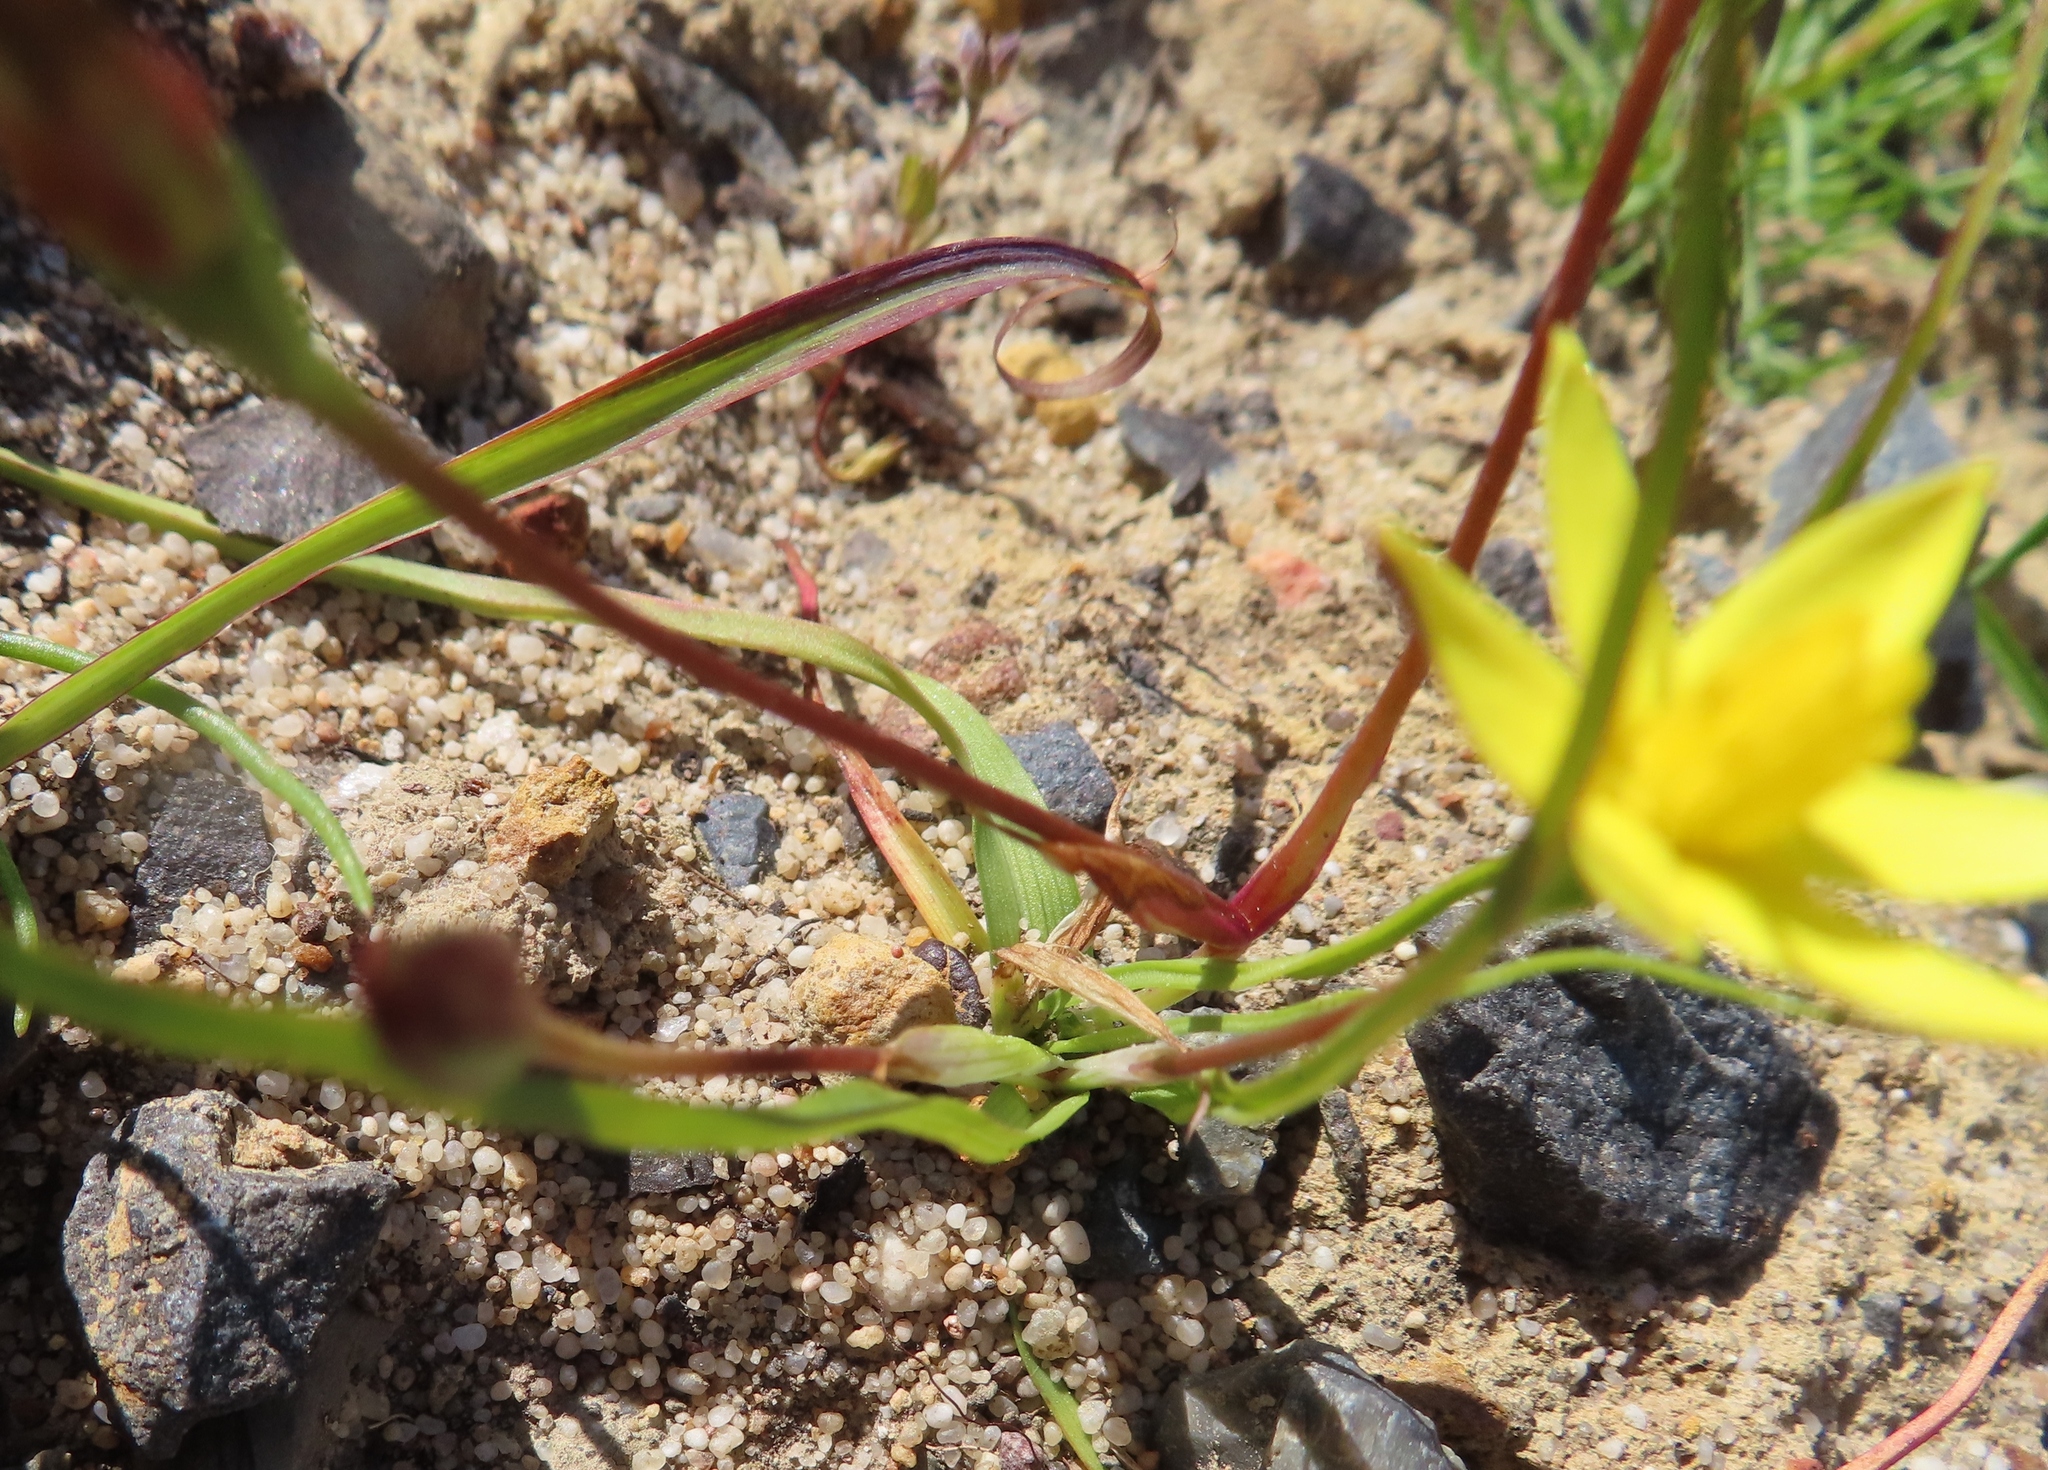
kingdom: Plantae
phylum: Tracheophyta
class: Liliopsida
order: Asparagales
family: Hypoxidaceae
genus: Pauridia
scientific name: Pauridia flaccida
